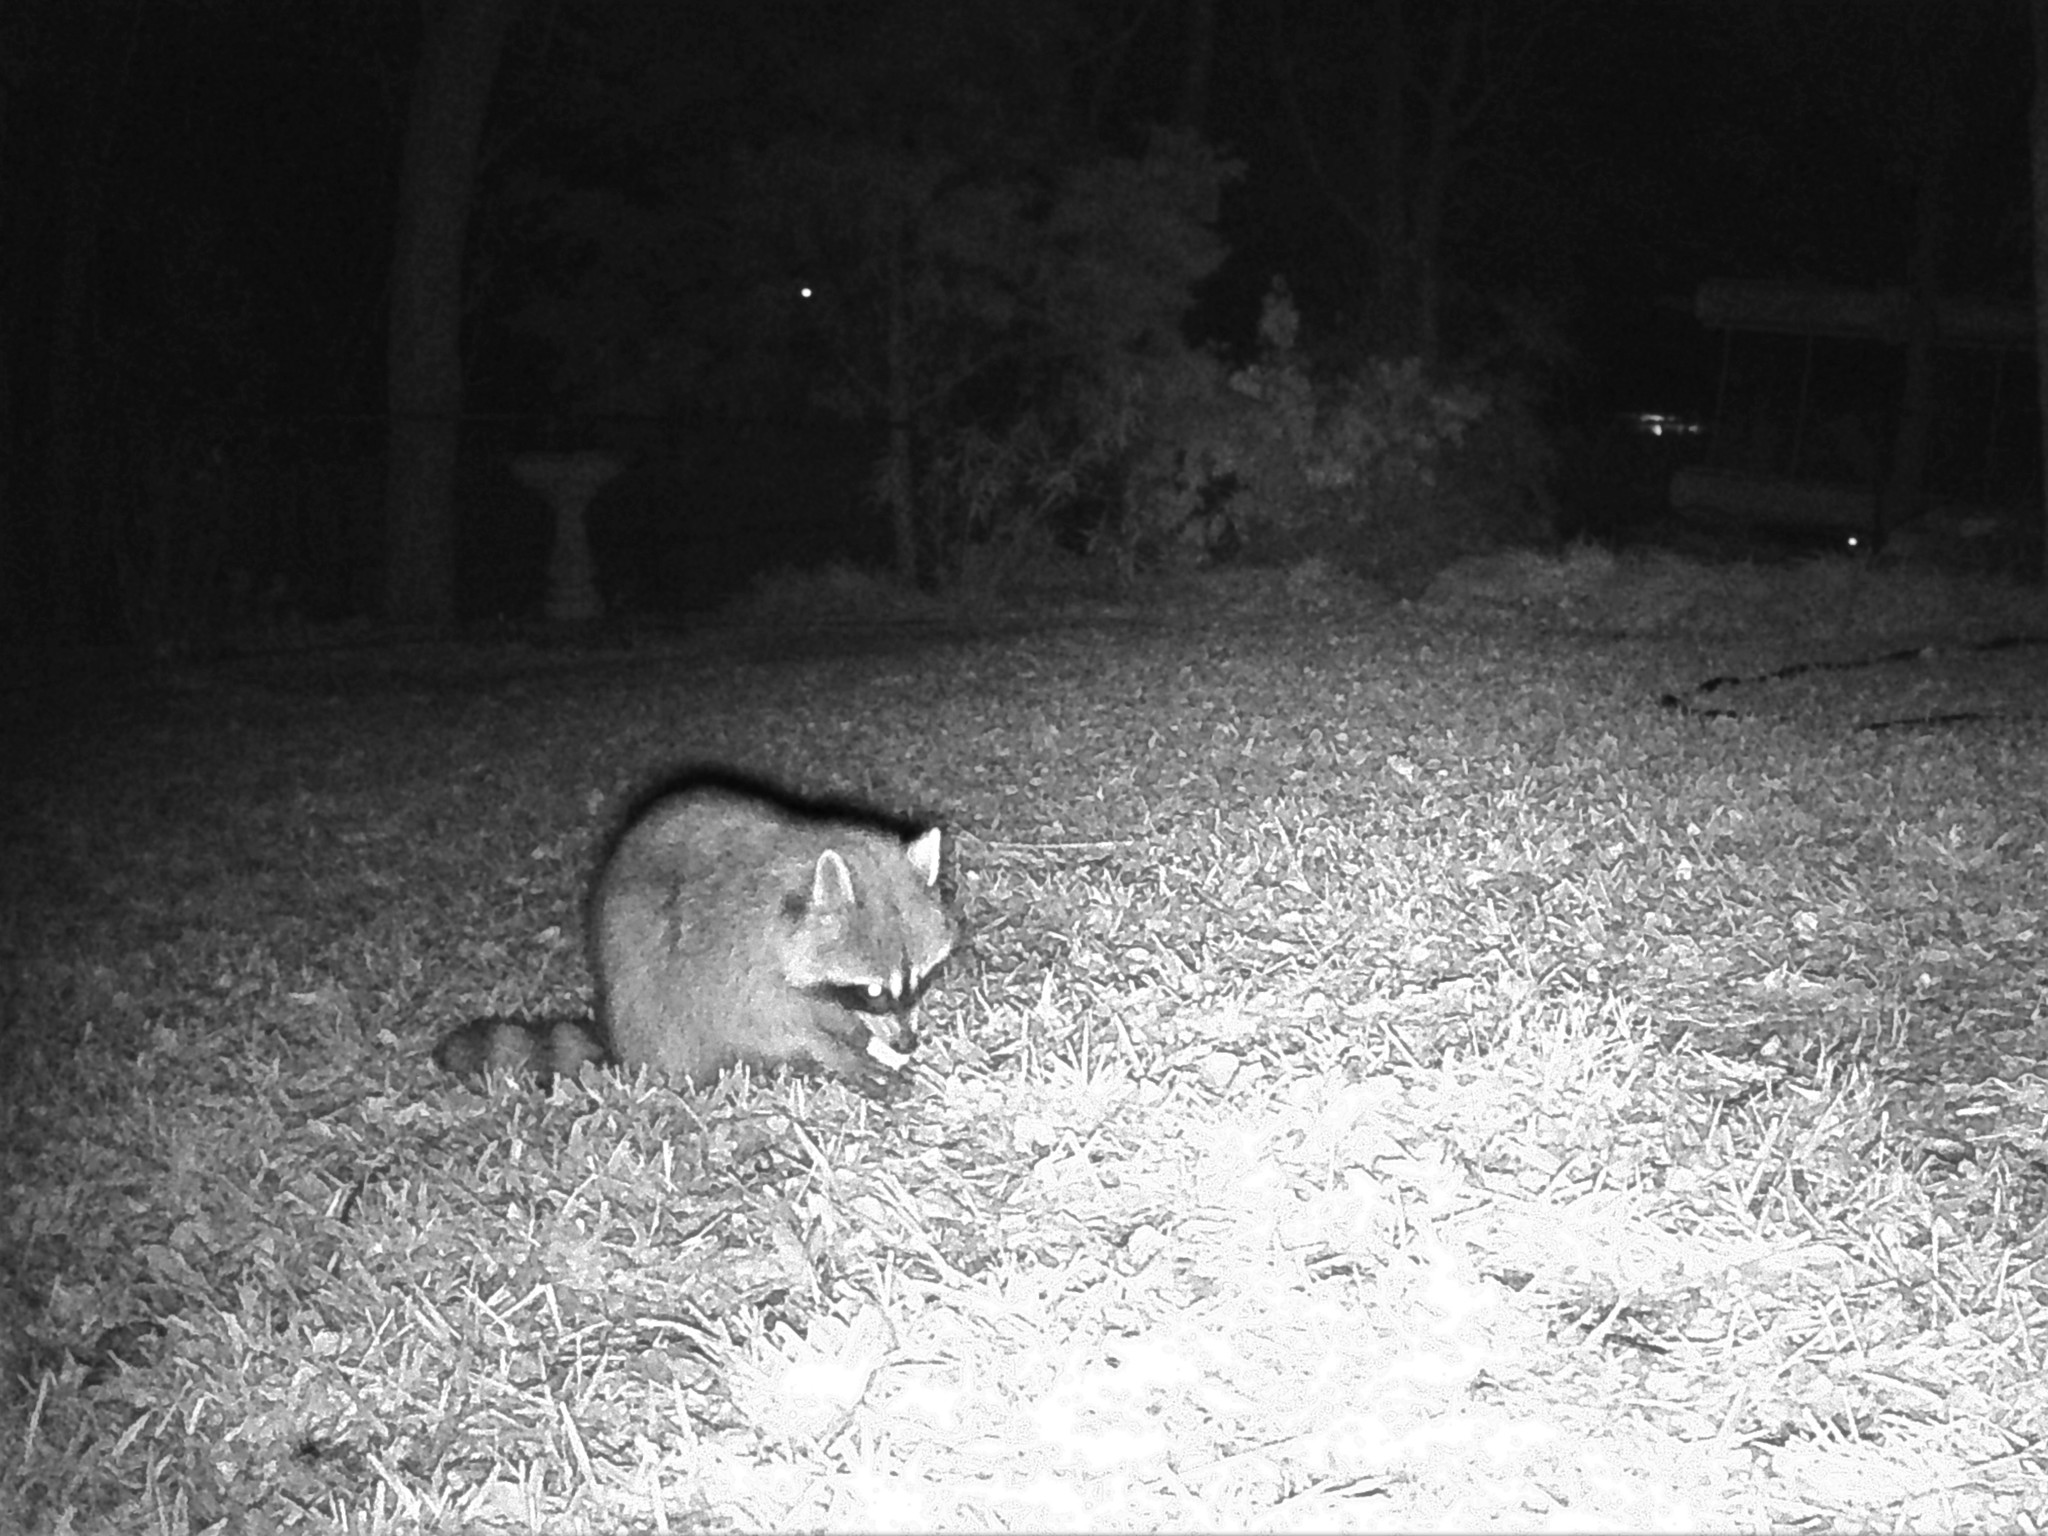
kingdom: Animalia
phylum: Chordata
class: Mammalia
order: Carnivora
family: Procyonidae
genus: Procyon
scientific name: Procyon lotor
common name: Raccoon
